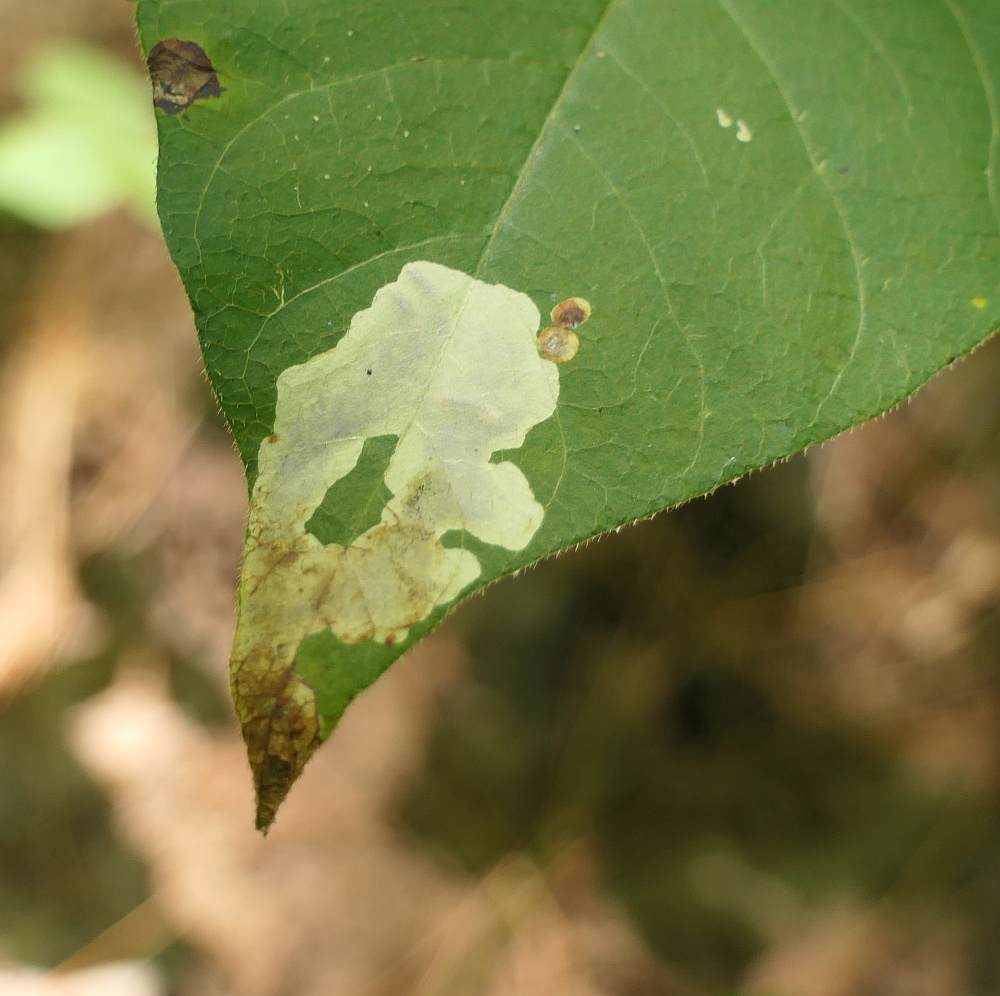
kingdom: Animalia
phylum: Arthropoda
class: Insecta
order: Lepidoptera
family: Gracillariidae
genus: Cameraria
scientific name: Cameraria guttifinitella
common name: Poison ivy leaf-miner moth
